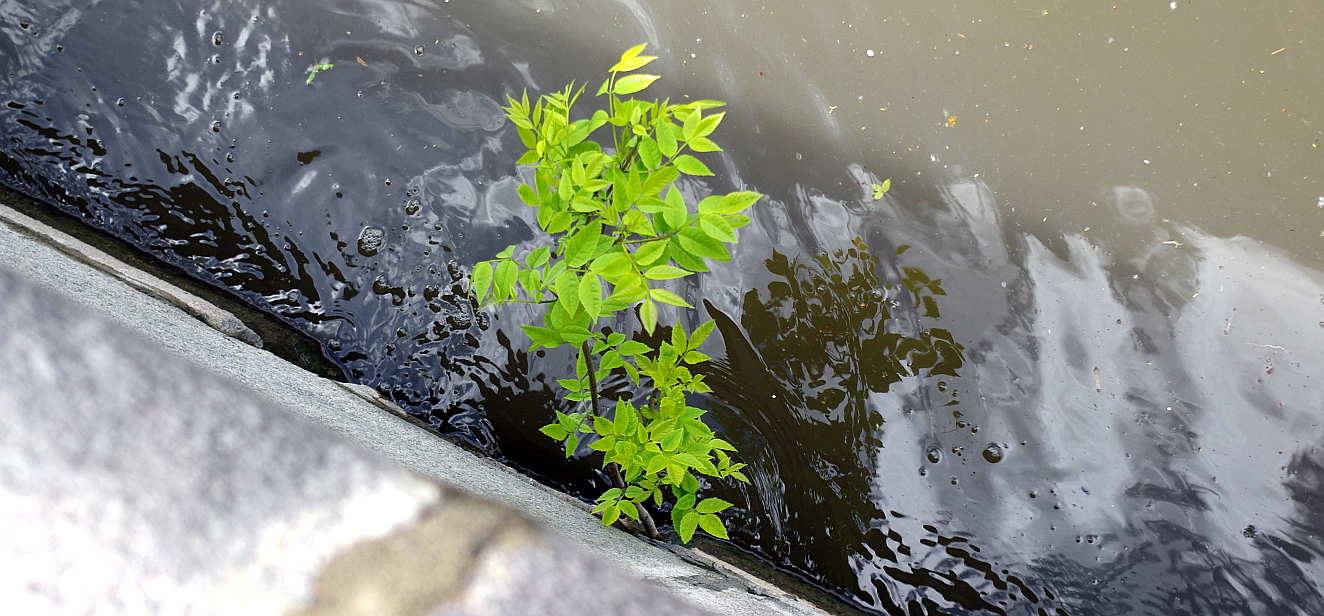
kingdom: Plantae
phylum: Tracheophyta
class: Magnoliopsida
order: Lamiales
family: Oleaceae
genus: Fraxinus
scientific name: Fraxinus pennsylvanica
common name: Green ash
